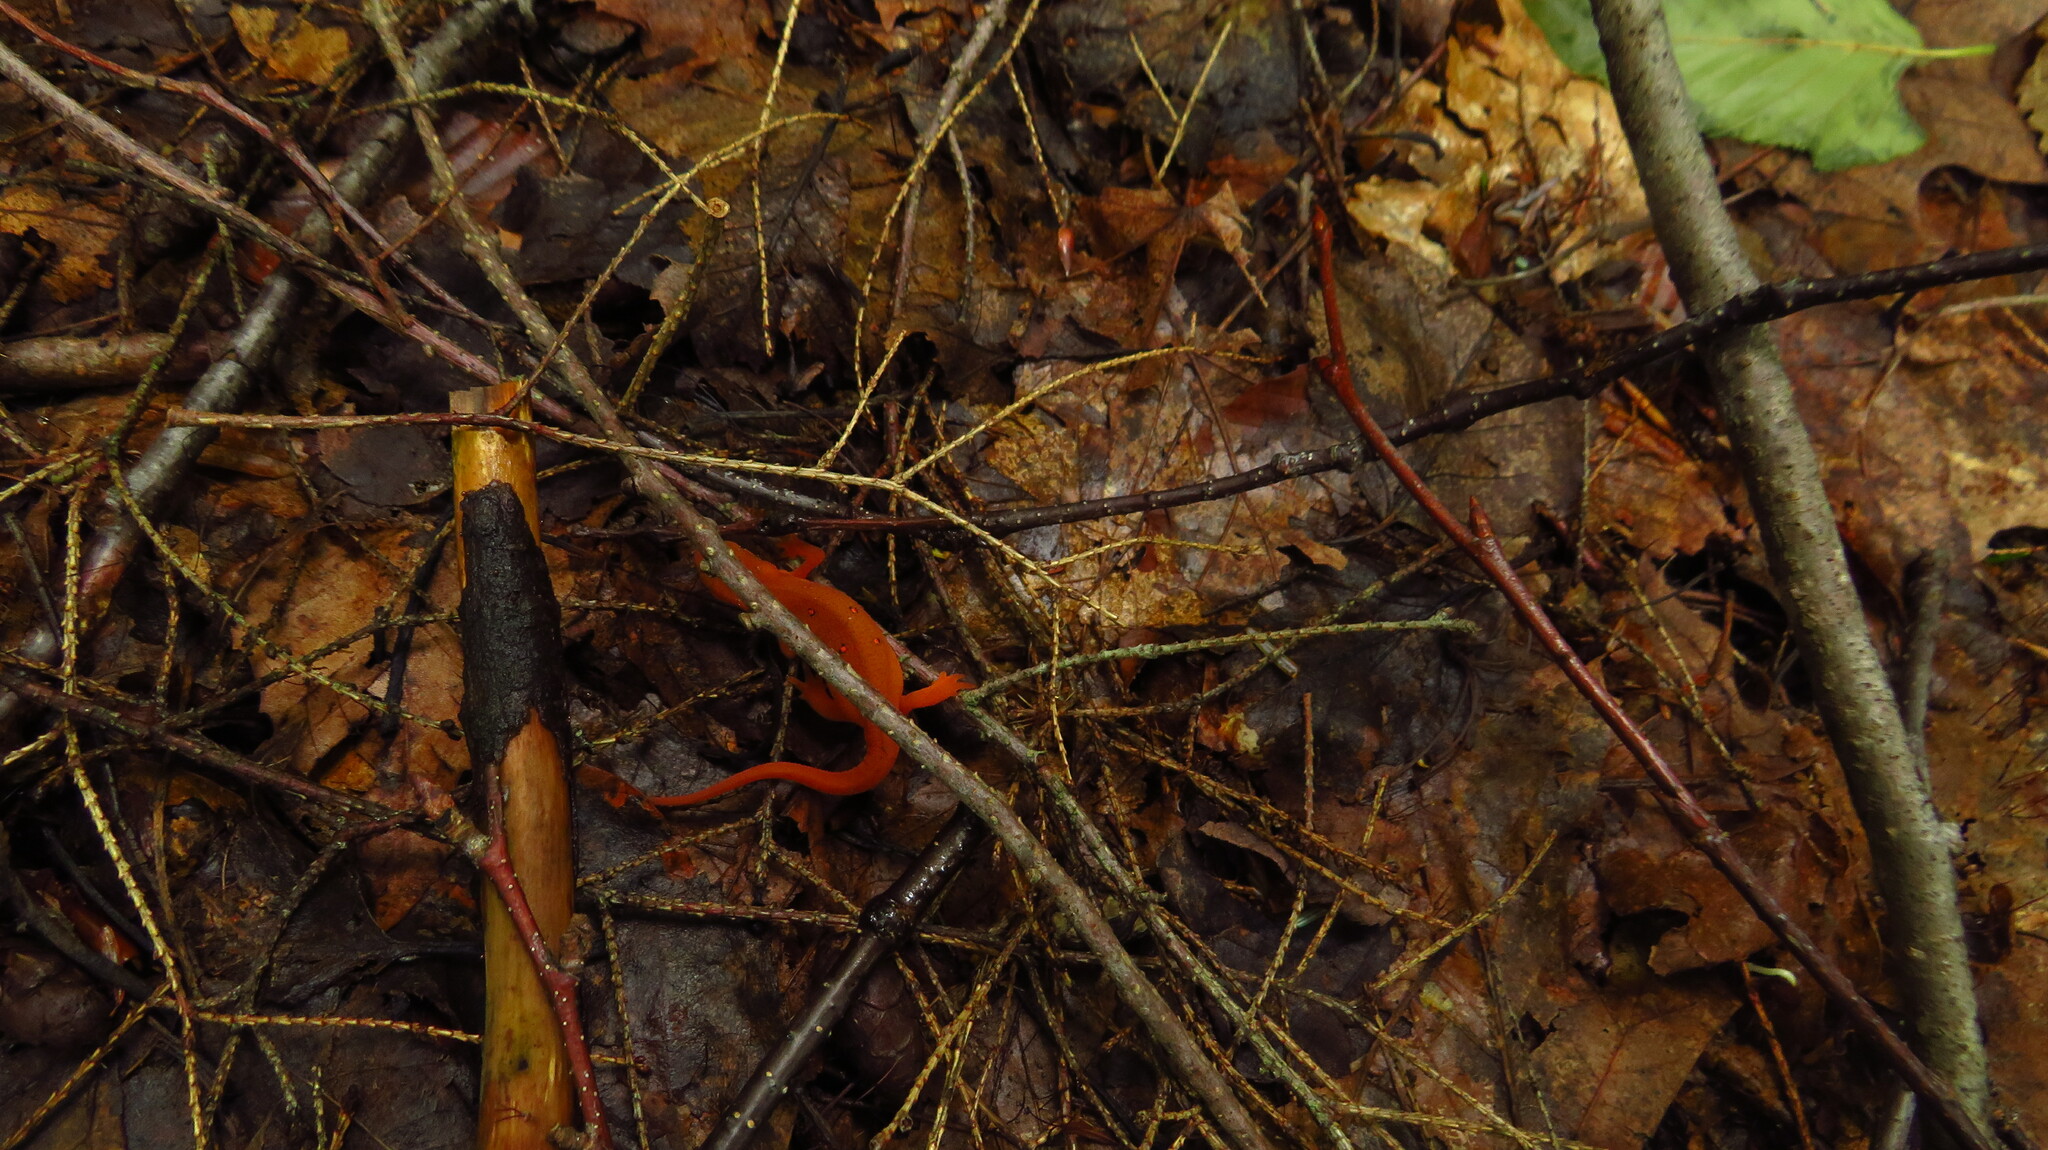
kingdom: Animalia
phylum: Chordata
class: Amphibia
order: Caudata
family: Salamandridae
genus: Notophthalmus
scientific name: Notophthalmus viridescens
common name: Eastern newt
